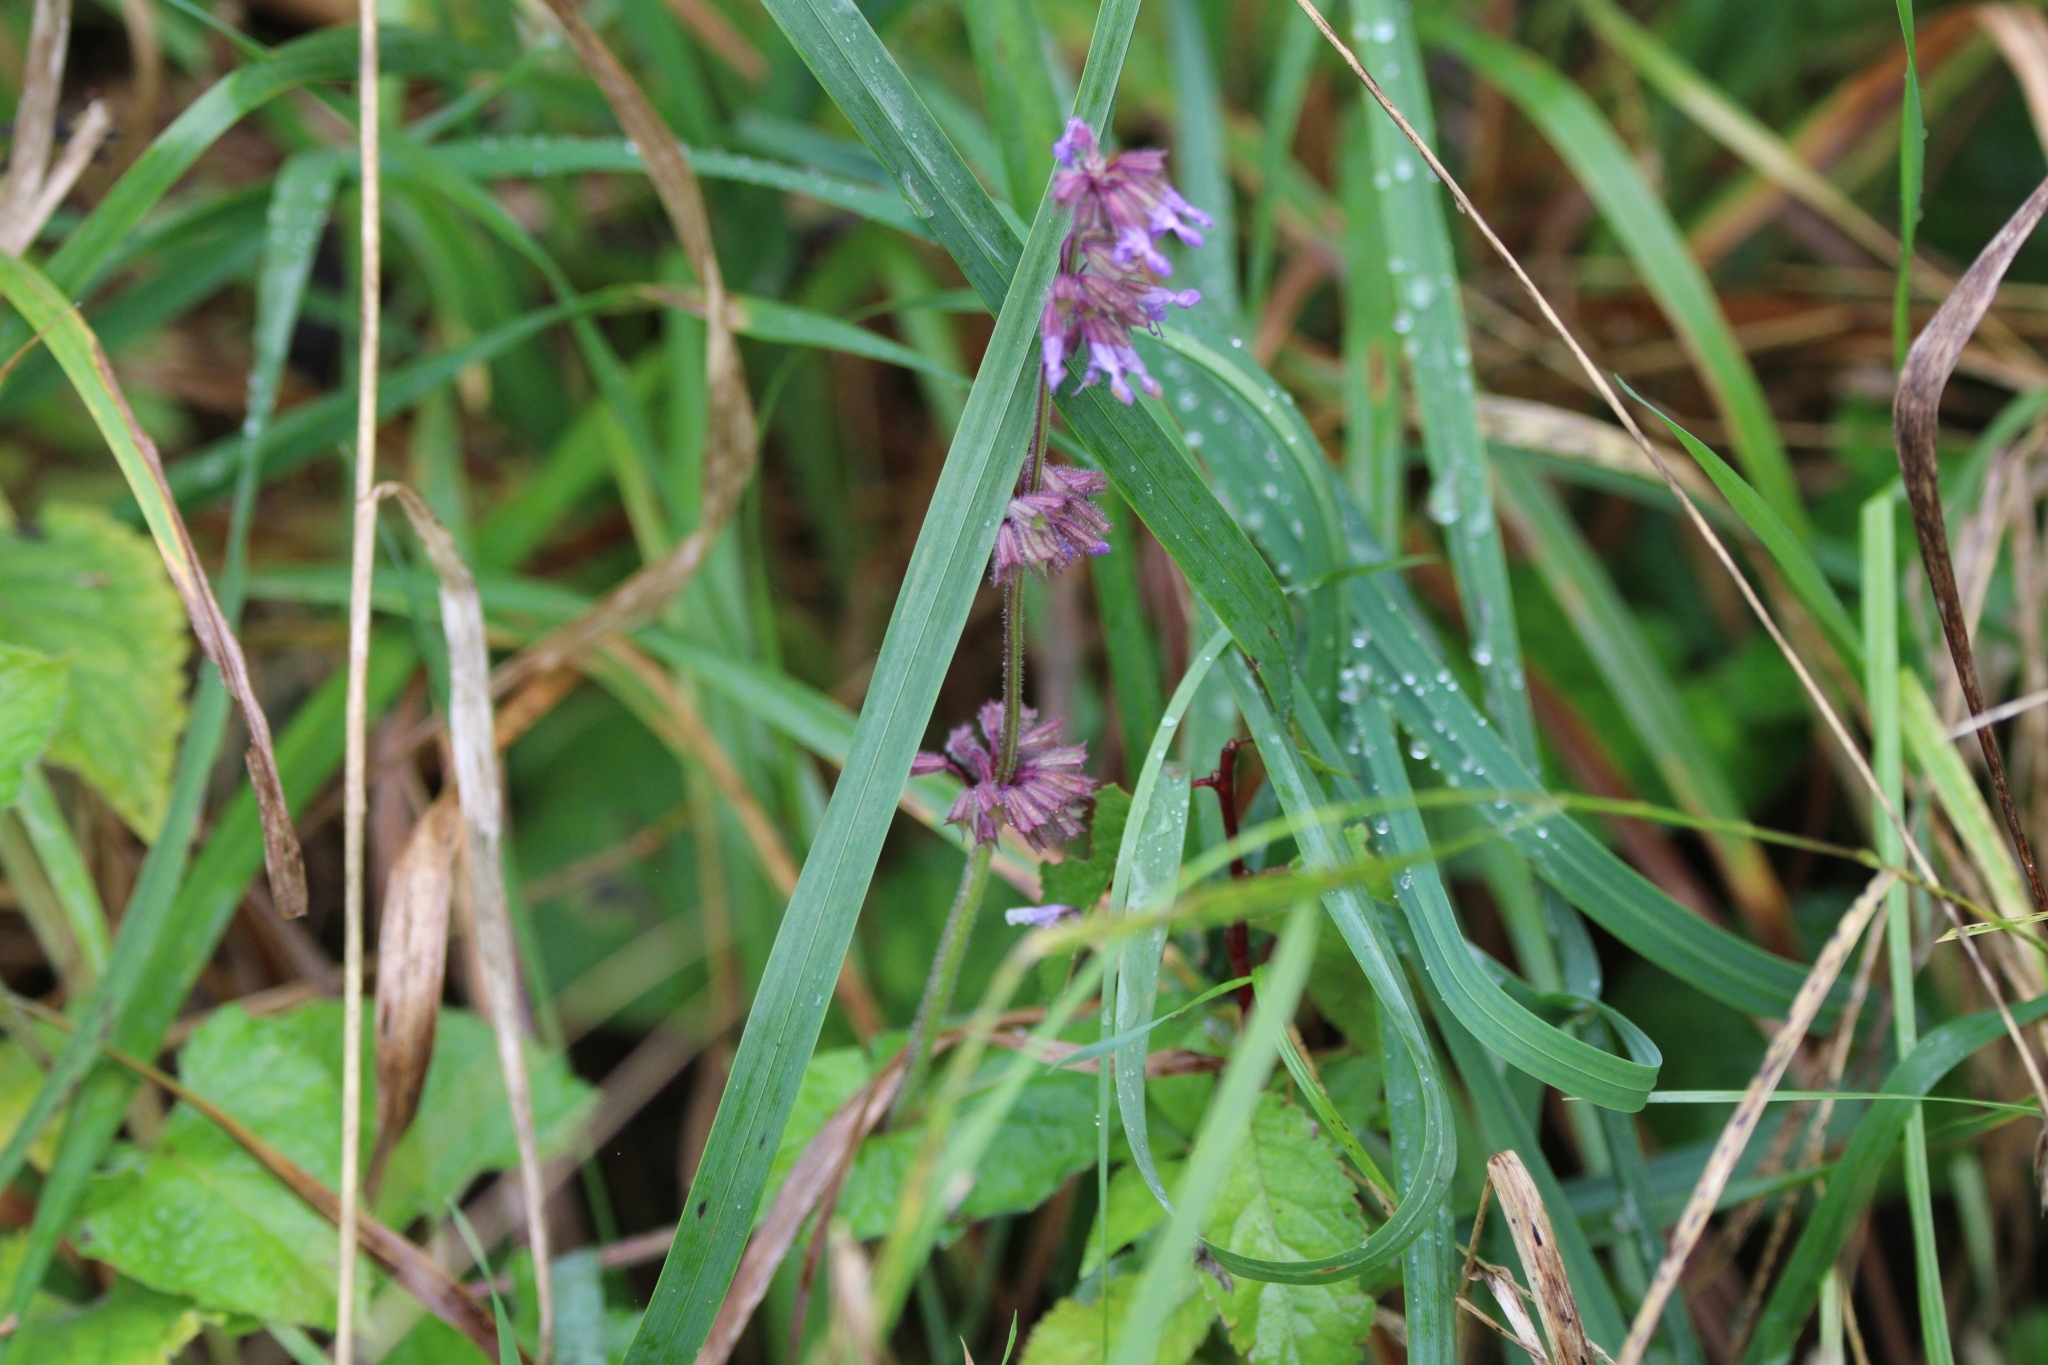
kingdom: Plantae
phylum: Tracheophyta
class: Magnoliopsida
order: Lamiales
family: Lamiaceae
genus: Salvia
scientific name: Salvia verticillata
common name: Whorled clary
